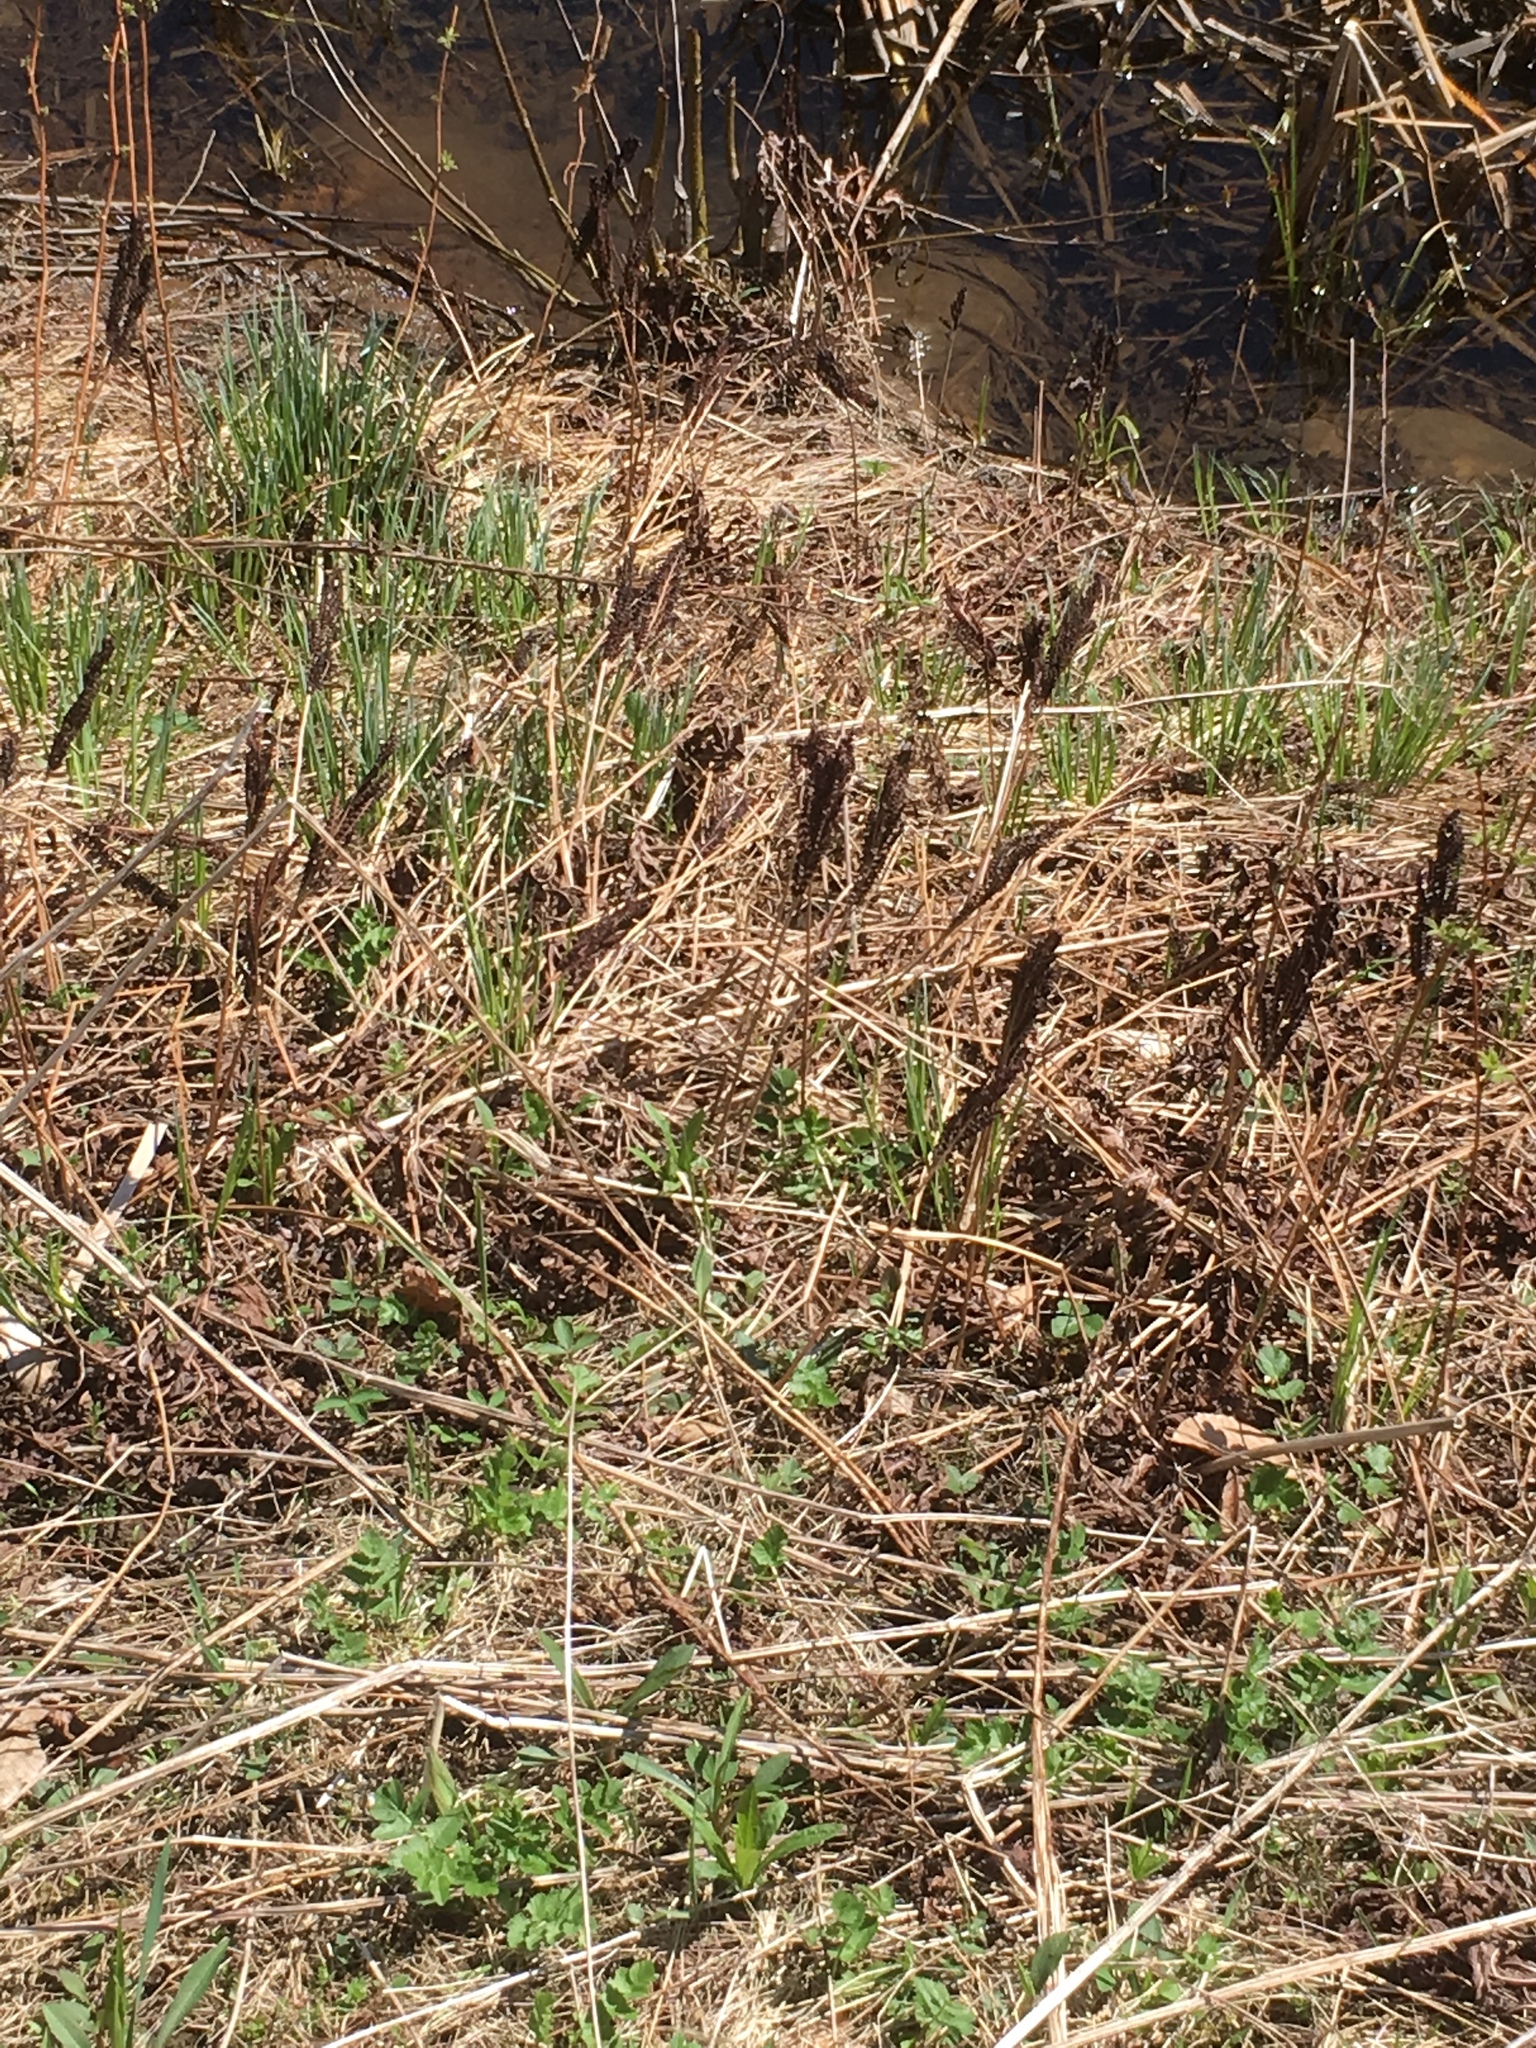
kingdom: Plantae
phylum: Tracheophyta
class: Polypodiopsida
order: Polypodiales
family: Onocleaceae
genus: Onoclea
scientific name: Onoclea sensibilis
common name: Sensitive fern
